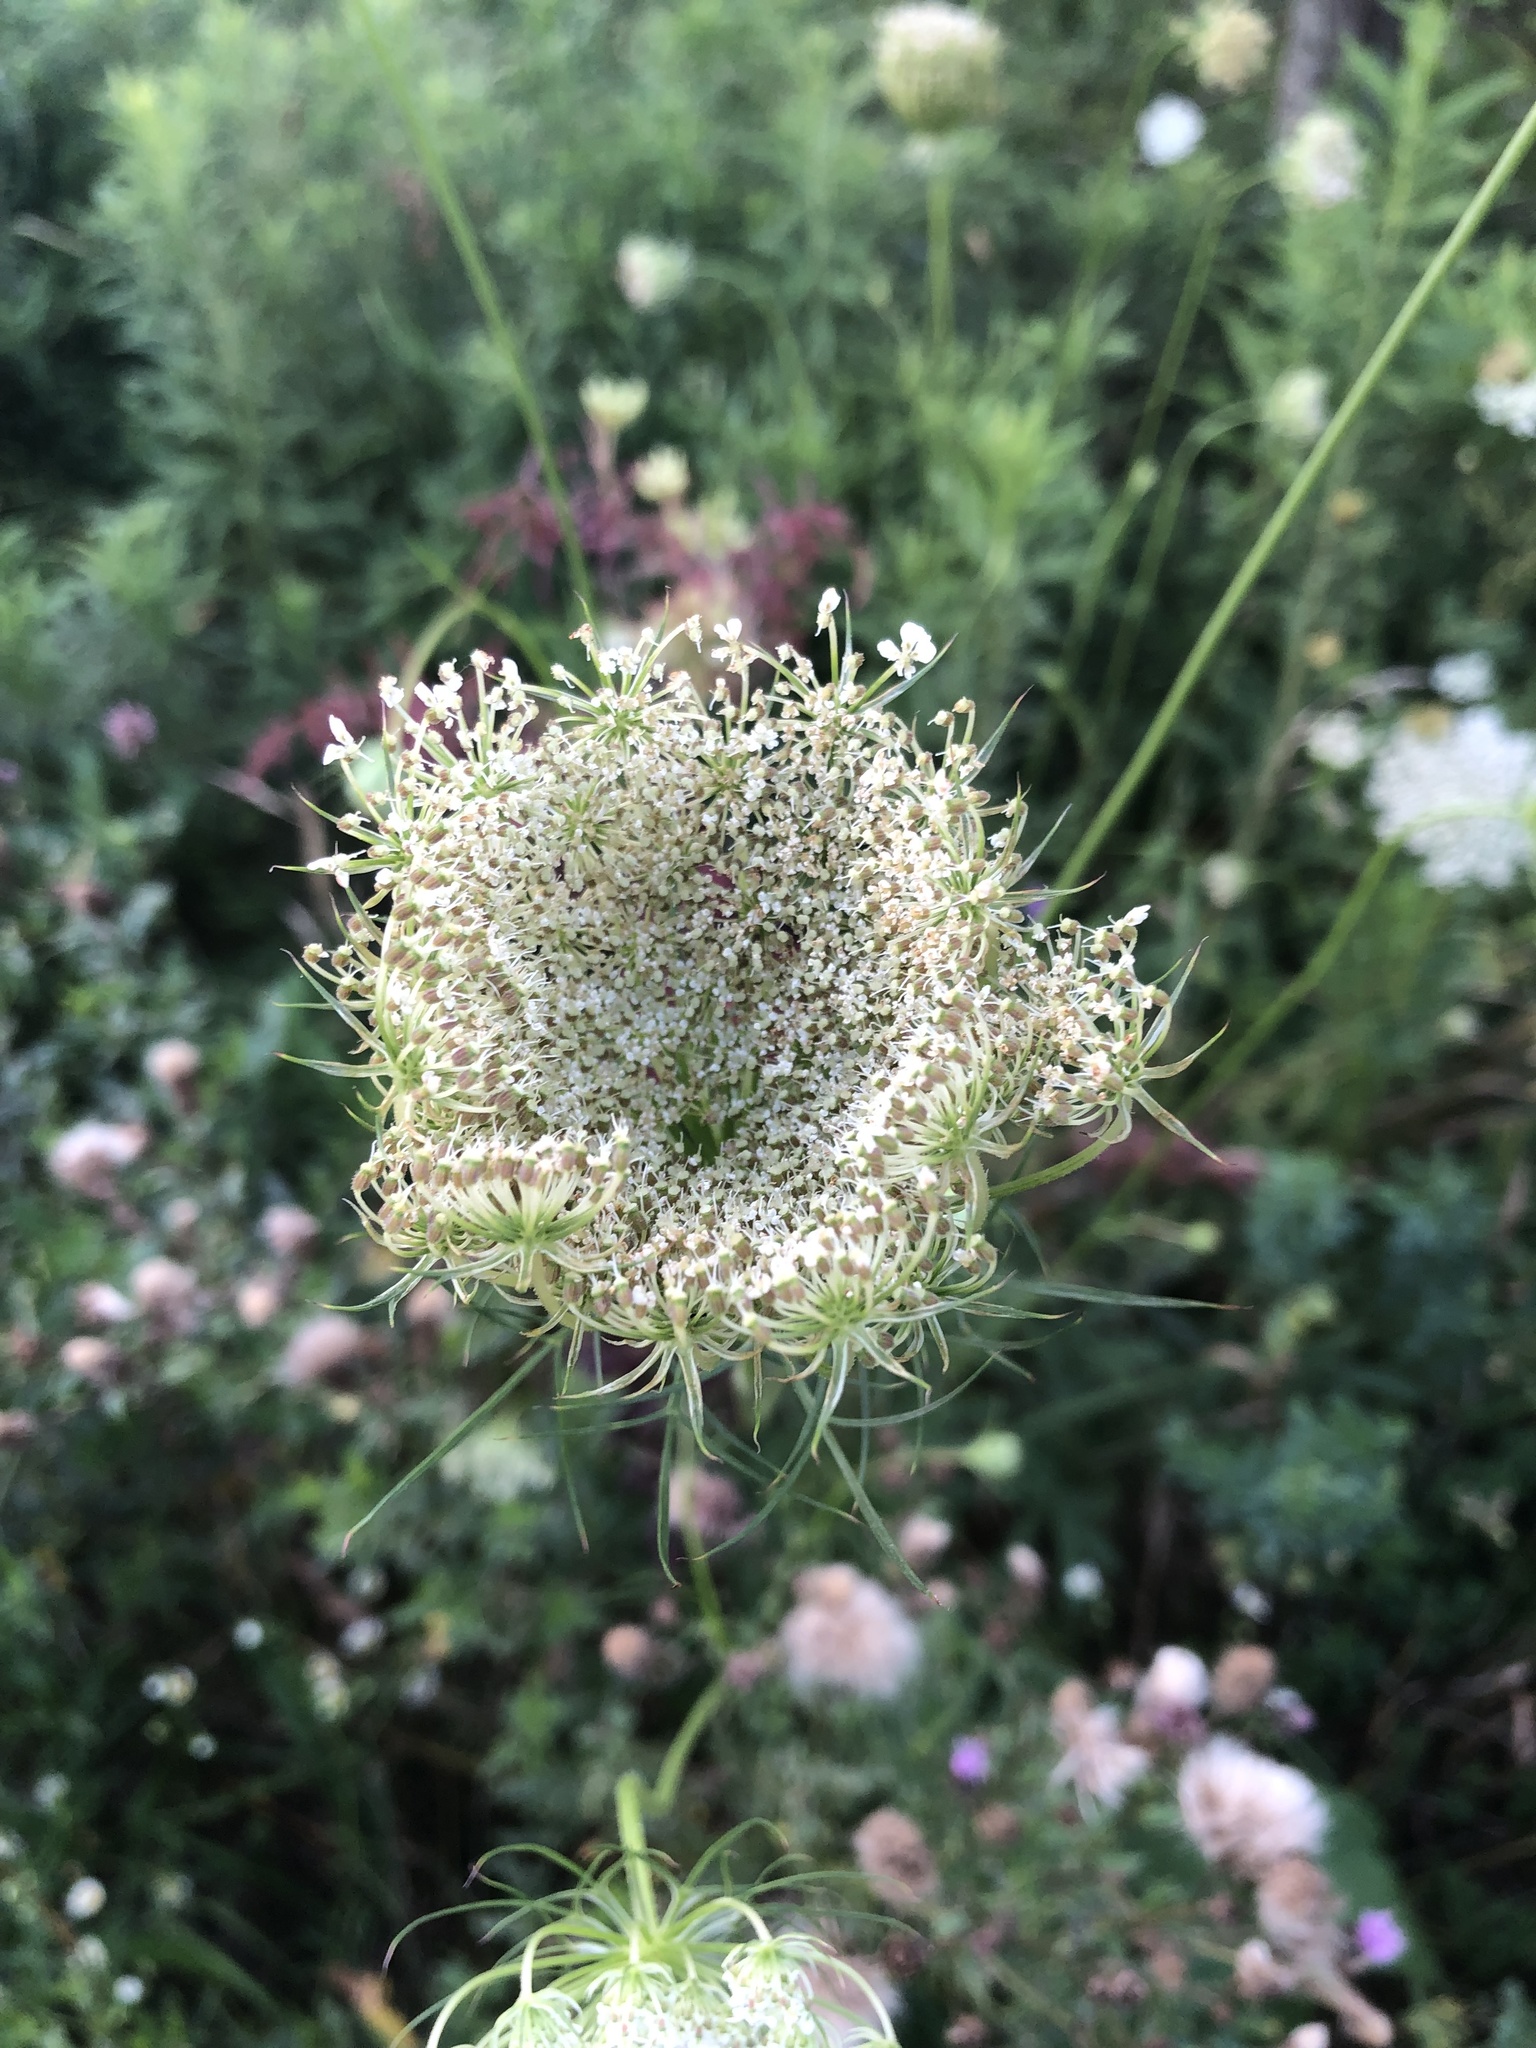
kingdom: Plantae
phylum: Tracheophyta
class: Magnoliopsida
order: Apiales
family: Apiaceae
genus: Daucus
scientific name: Daucus carota
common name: Wild carrot
